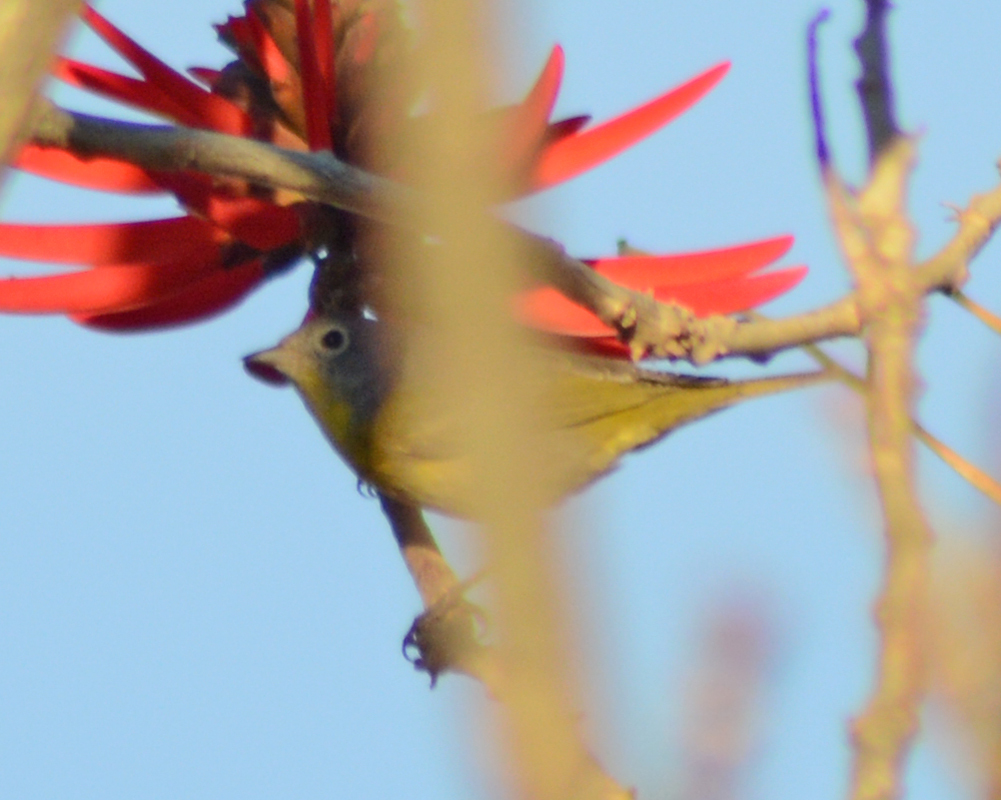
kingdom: Animalia
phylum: Chordata
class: Aves
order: Passeriformes
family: Parulidae
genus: Leiothlypis
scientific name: Leiothlypis ruficapilla
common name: Nashville warbler
